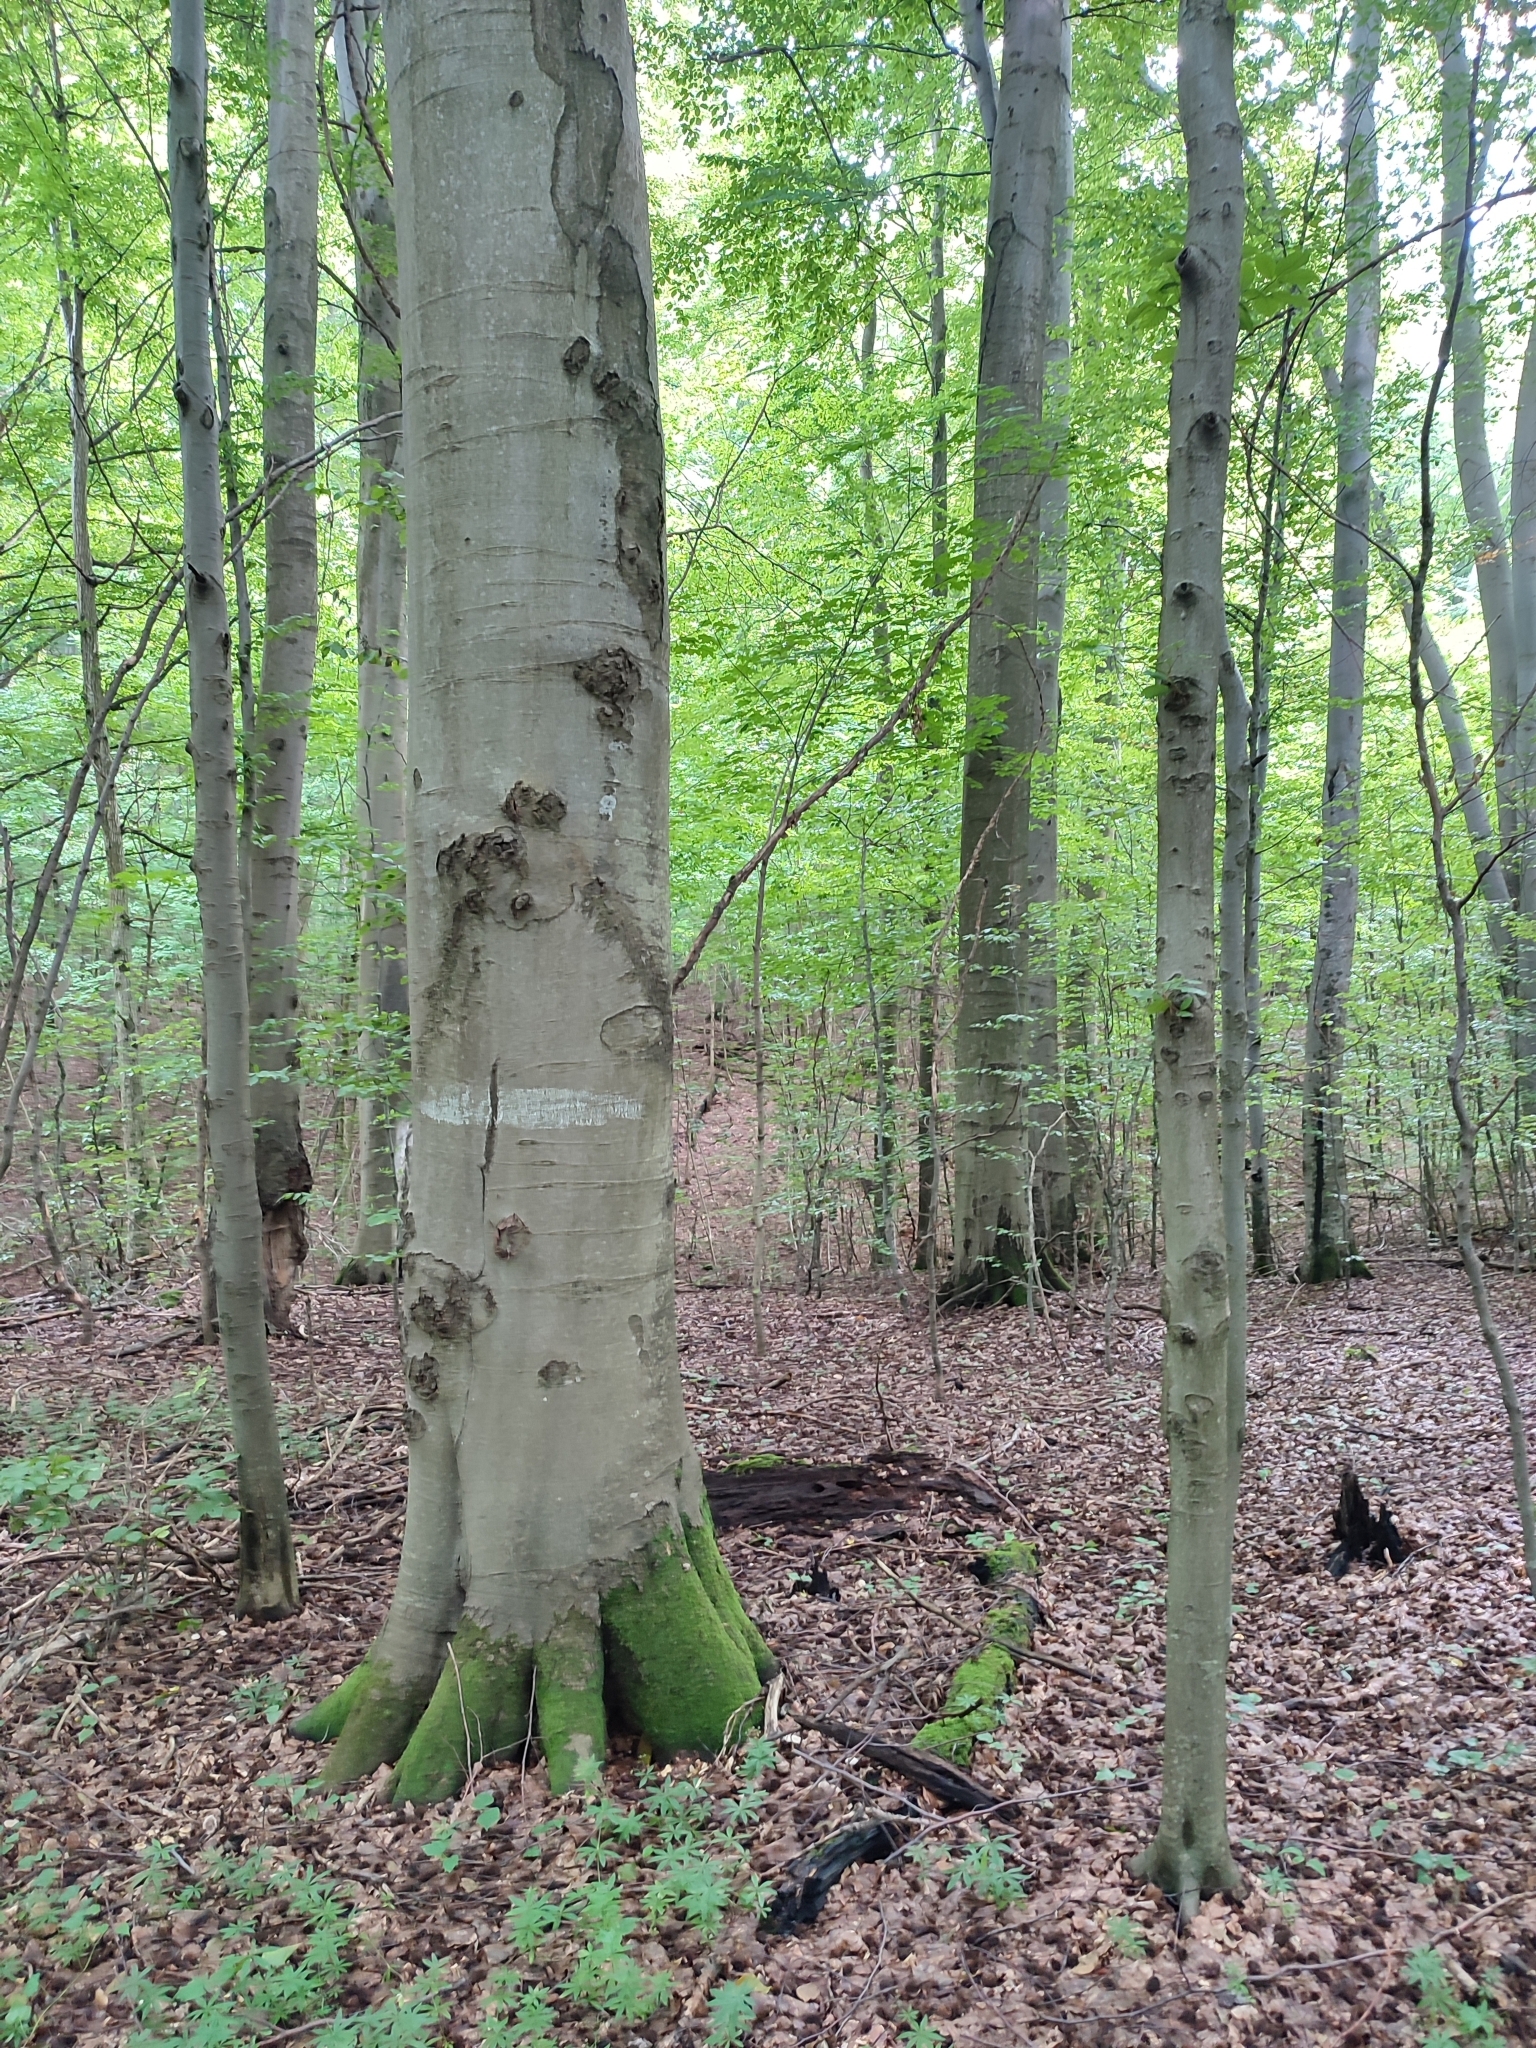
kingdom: Plantae
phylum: Tracheophyta
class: Magnoliopsida
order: Fagales
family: Fagaceae
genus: Fagus
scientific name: Fagus sylvatica
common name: Beech
